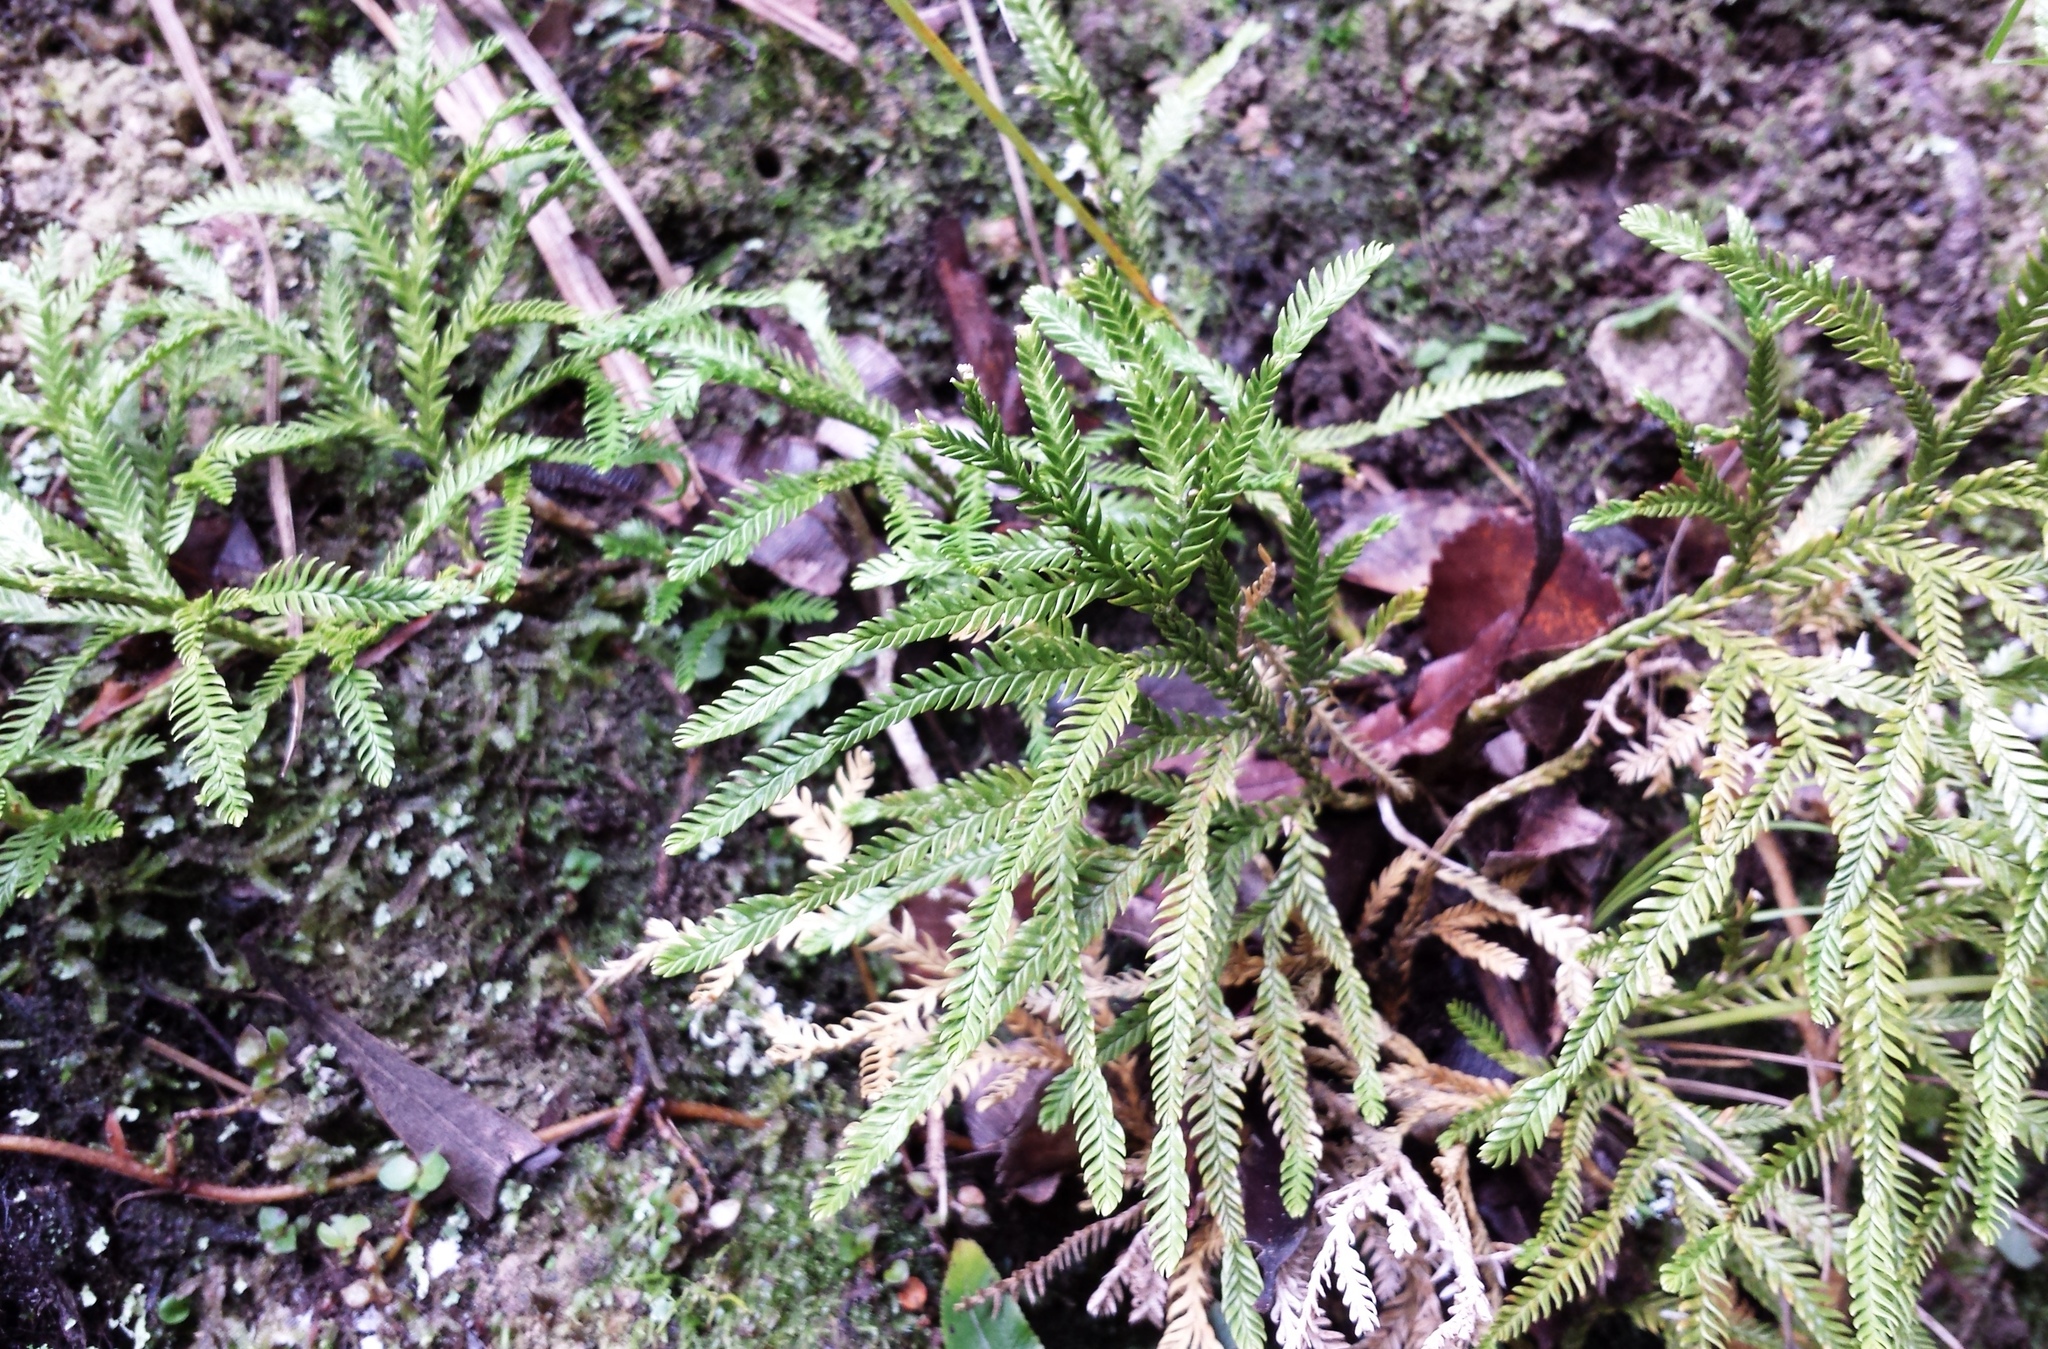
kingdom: Plantae
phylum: Tracheophyta
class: Lycopodiopsida
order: Lycopodiales
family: Lycopodiaceae
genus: Diphasium
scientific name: Diphasium scariosum
